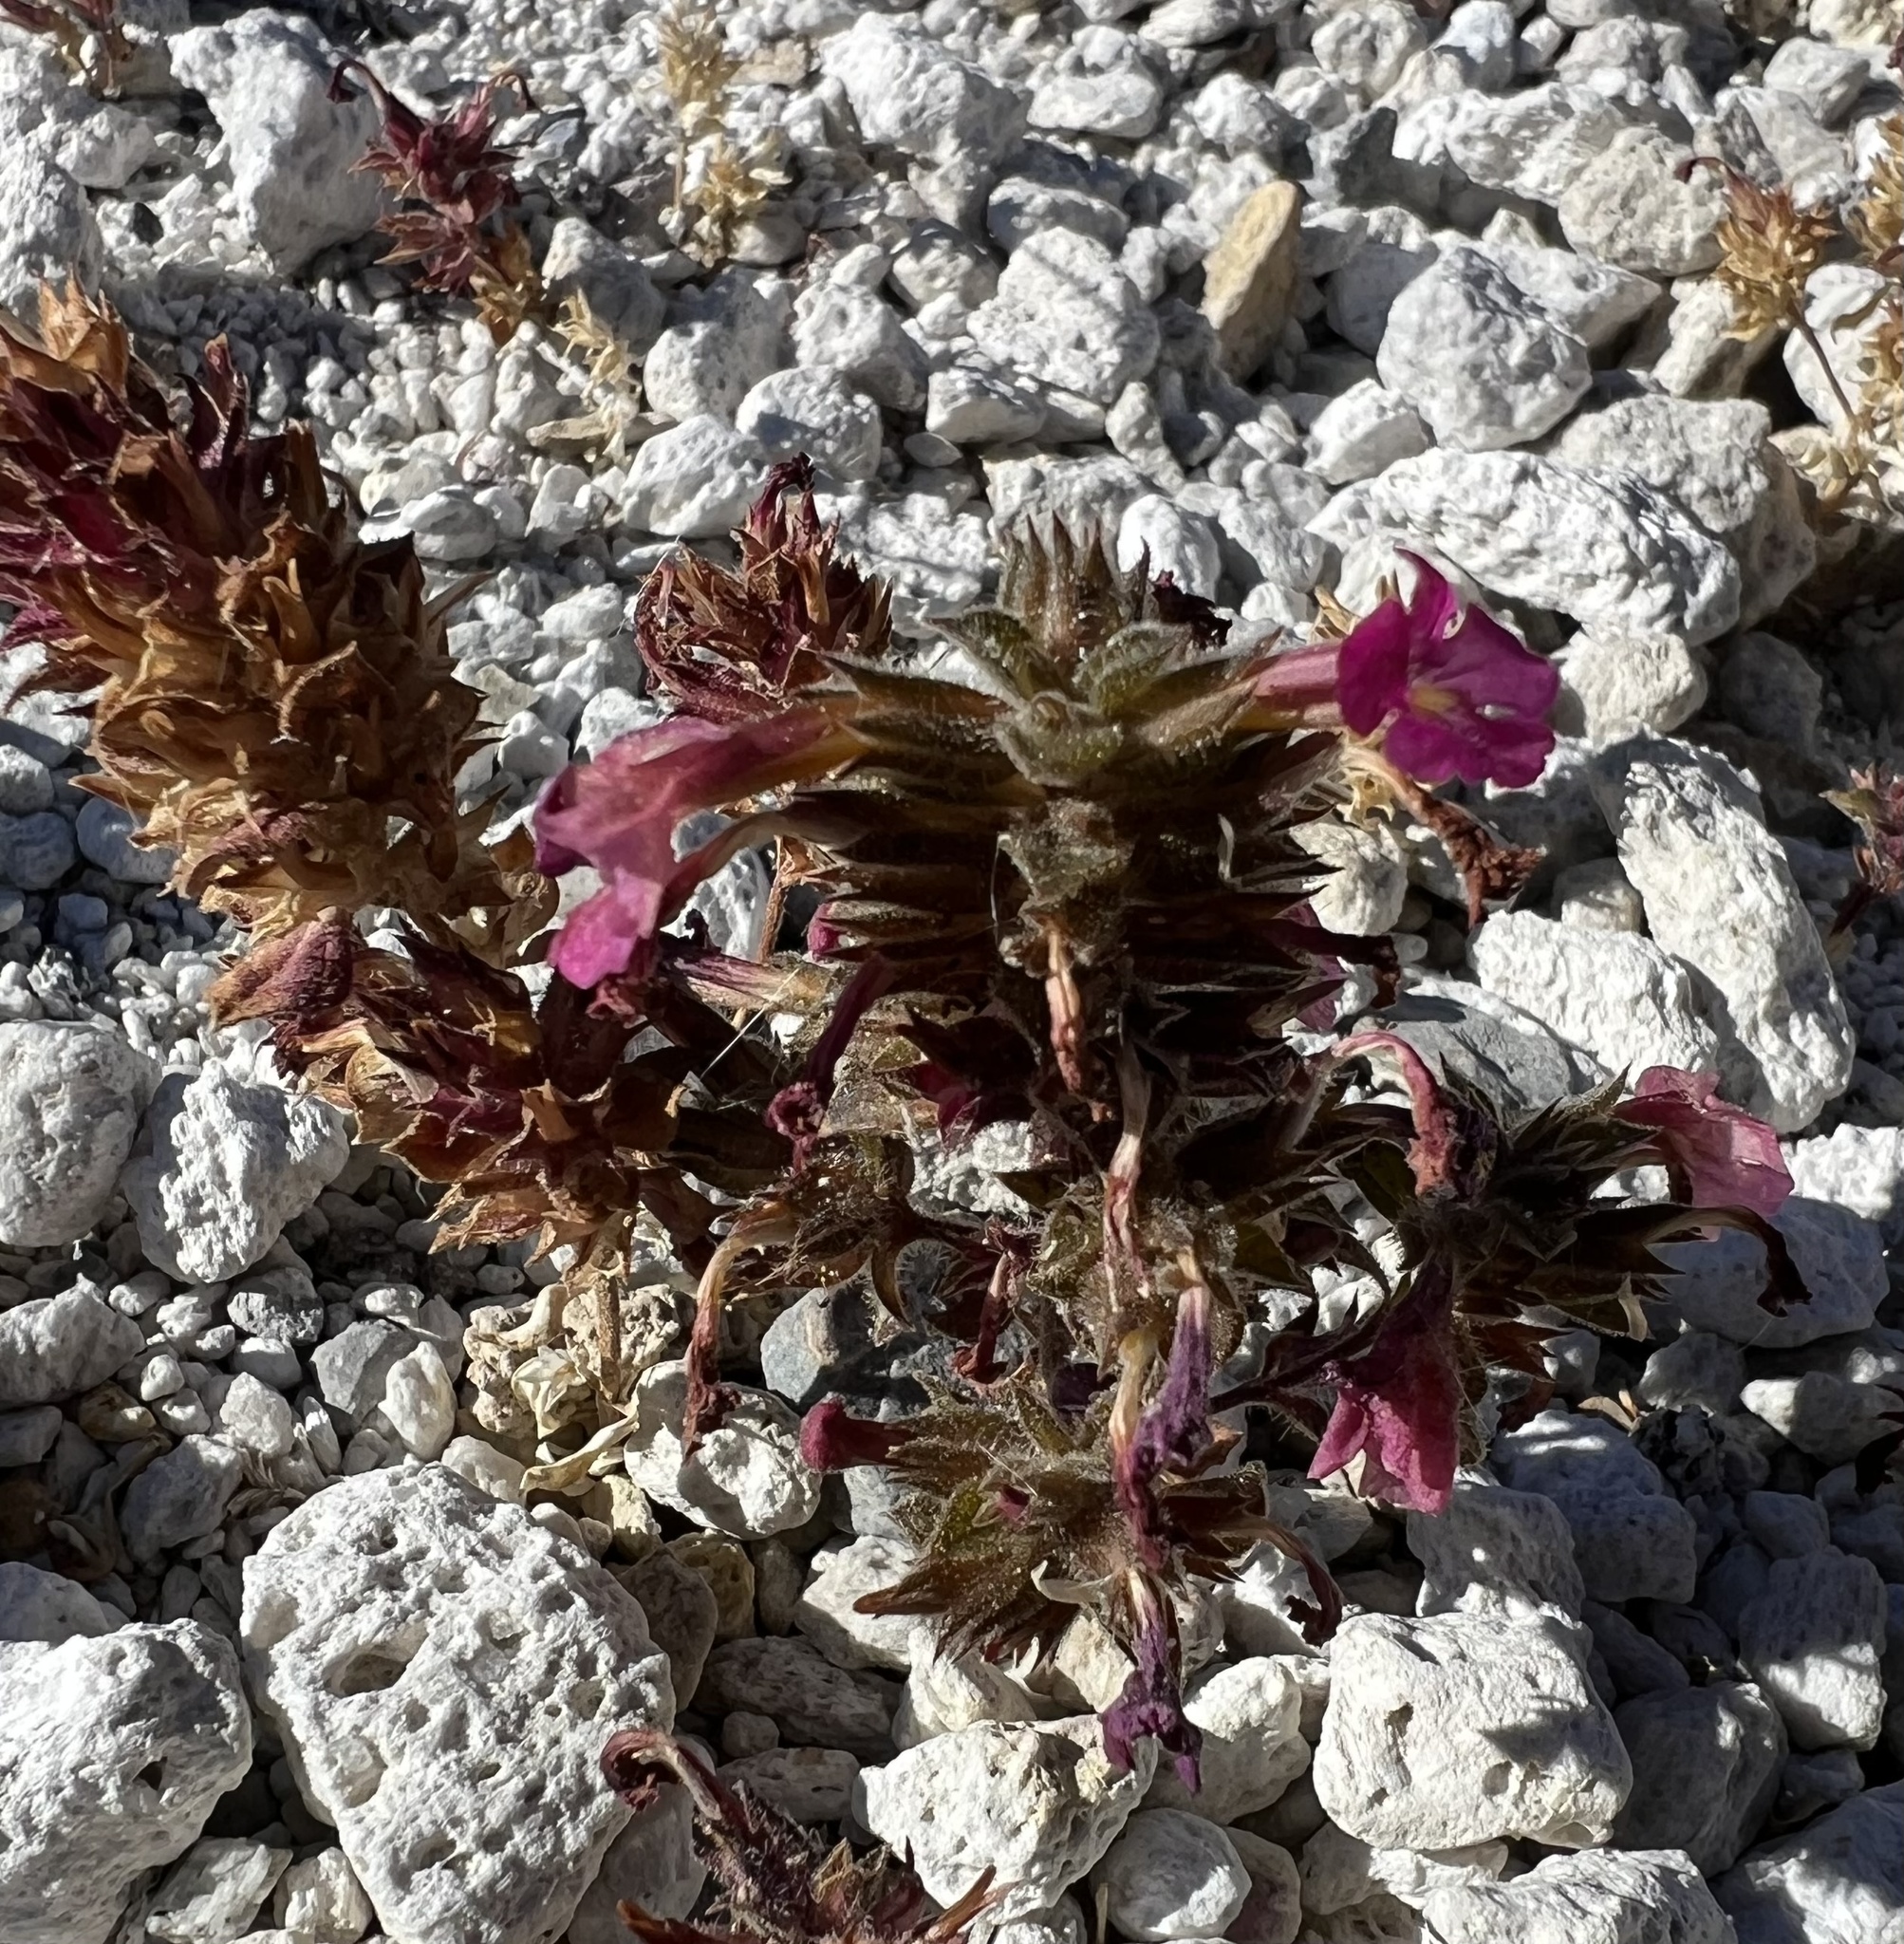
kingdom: Plantae
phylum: Tracheophyta
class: Magnoliopsida
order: Lamiales
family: Phrymaceae
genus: Diplacus
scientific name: Diplacus bigelovii
